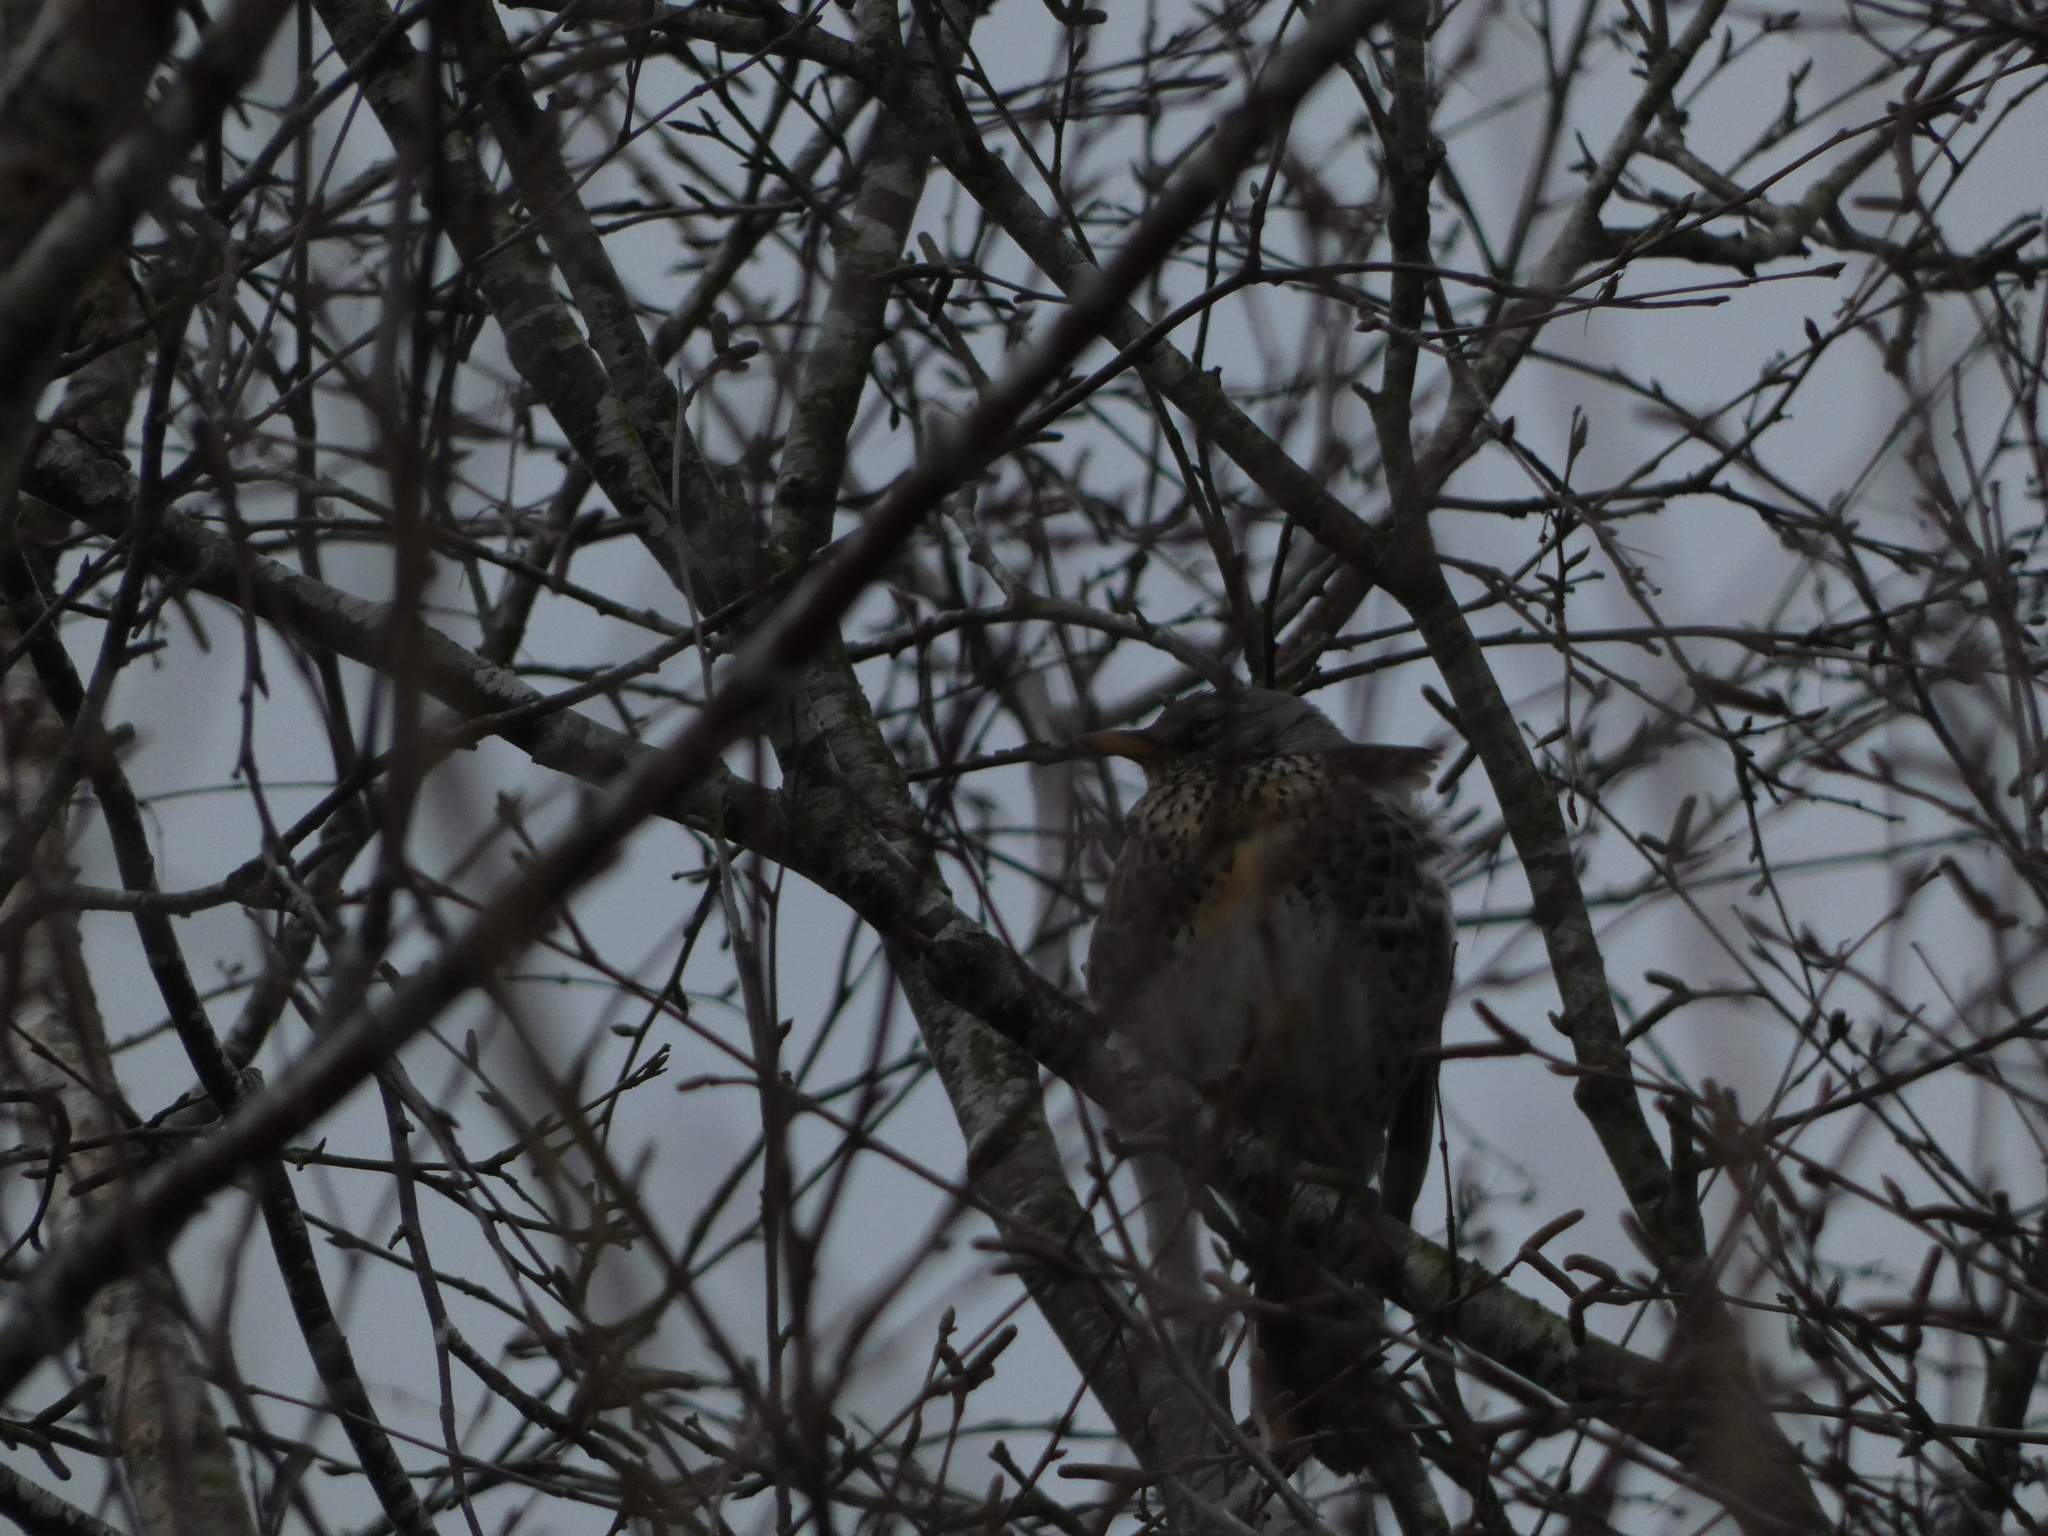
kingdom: Animalia
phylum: Chordata
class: Aves
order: Passeriformes
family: Turdidae
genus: Turdus
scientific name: Turdus pilaris
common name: Fieldfare
